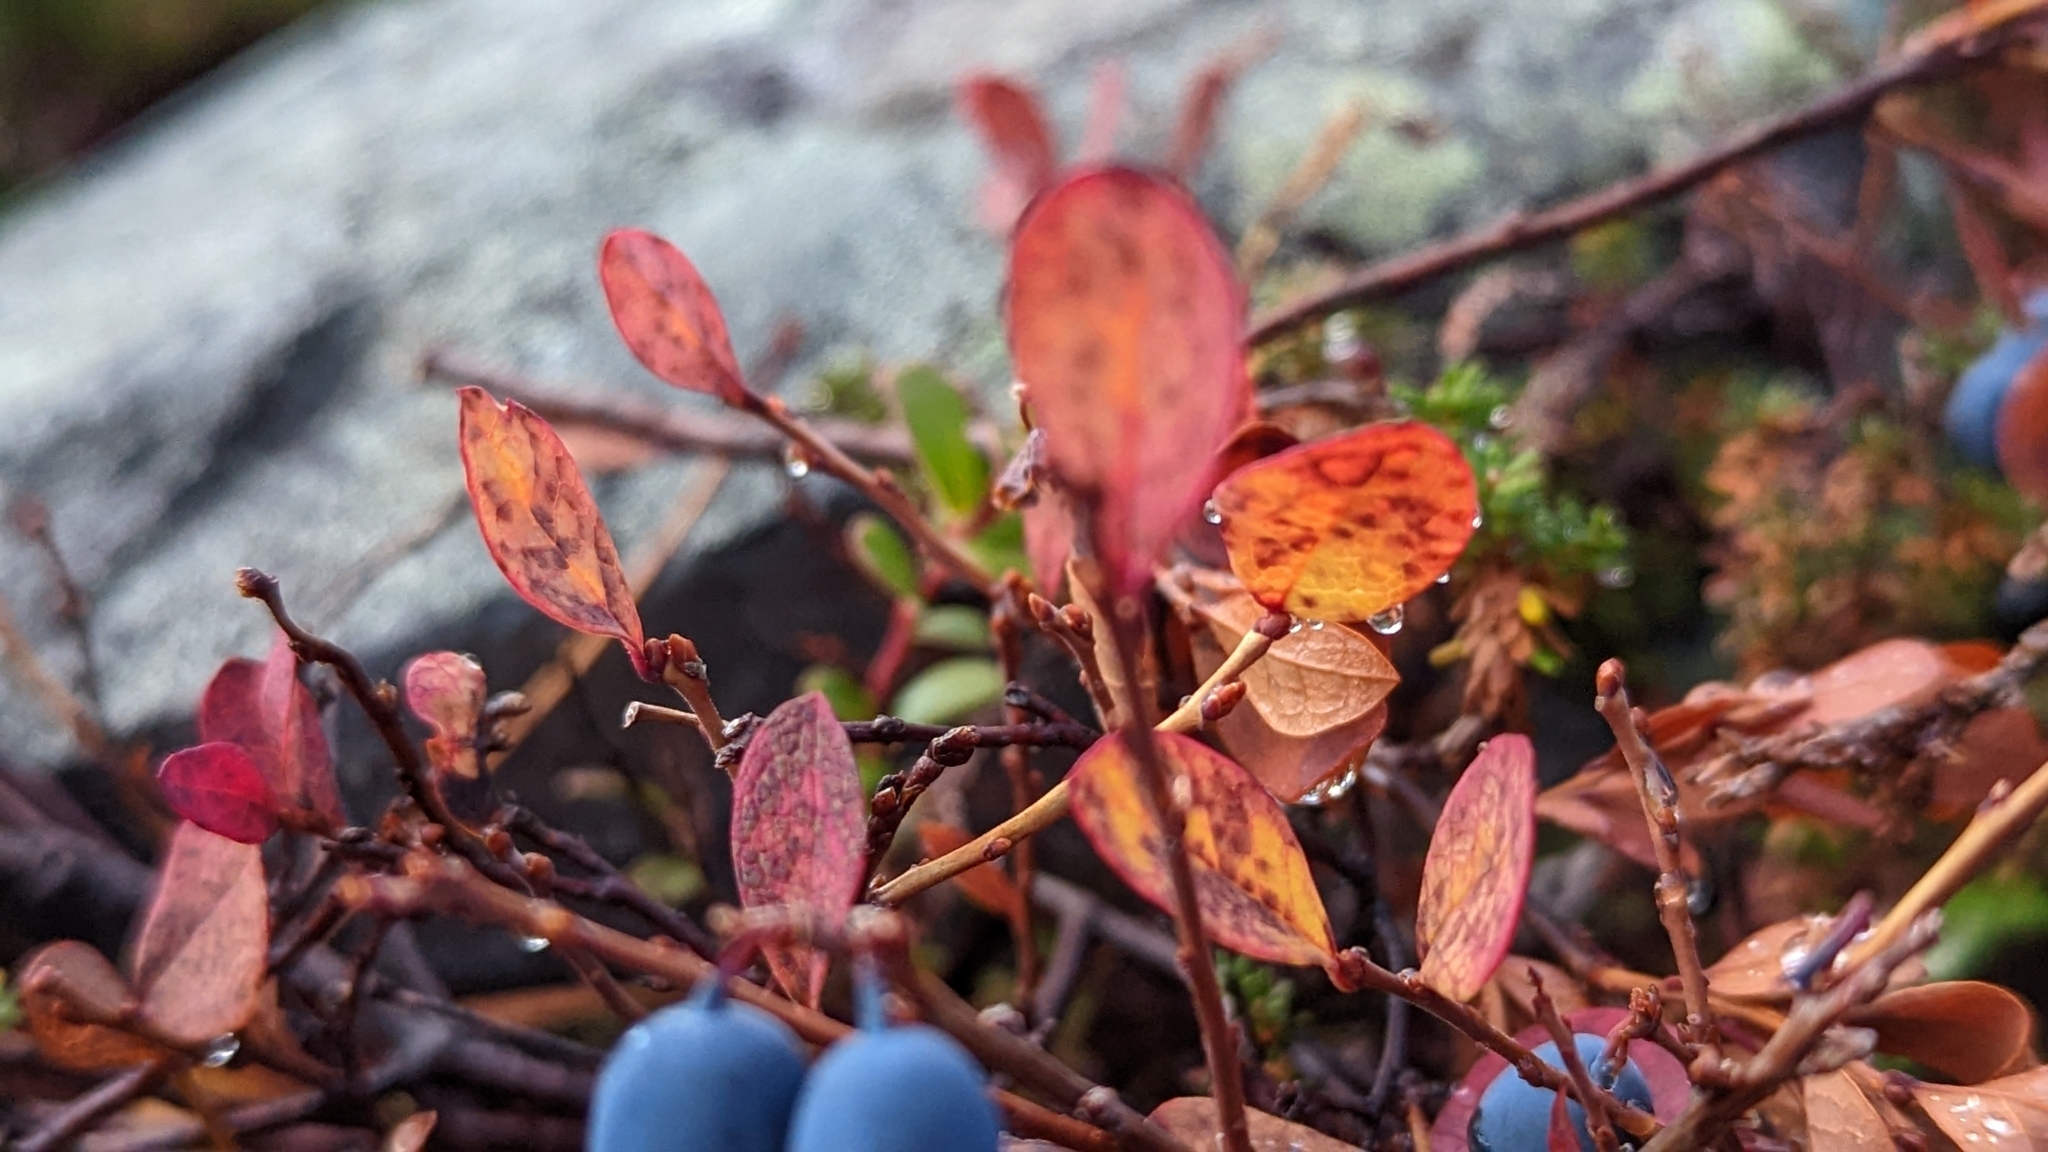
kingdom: Plantae
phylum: Tracheophyta
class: Magnoliopsida
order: Ericales
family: Ericaceae
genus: Vaccinium
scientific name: Vaccinium uliginosum
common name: Bog bilberry
